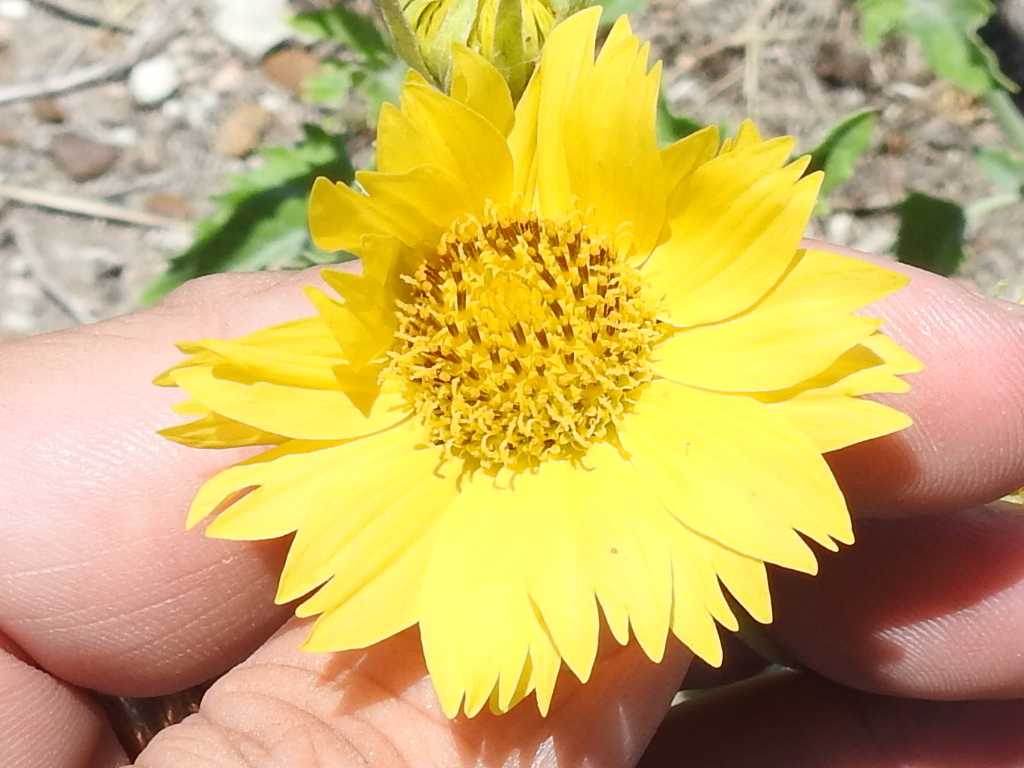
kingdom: Plantae
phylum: Tracheophyta
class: Magnoliopsida
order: Asterales
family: Asteraceae
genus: Verbesina
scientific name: Verbesina encelioides
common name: Golden crownbeard
